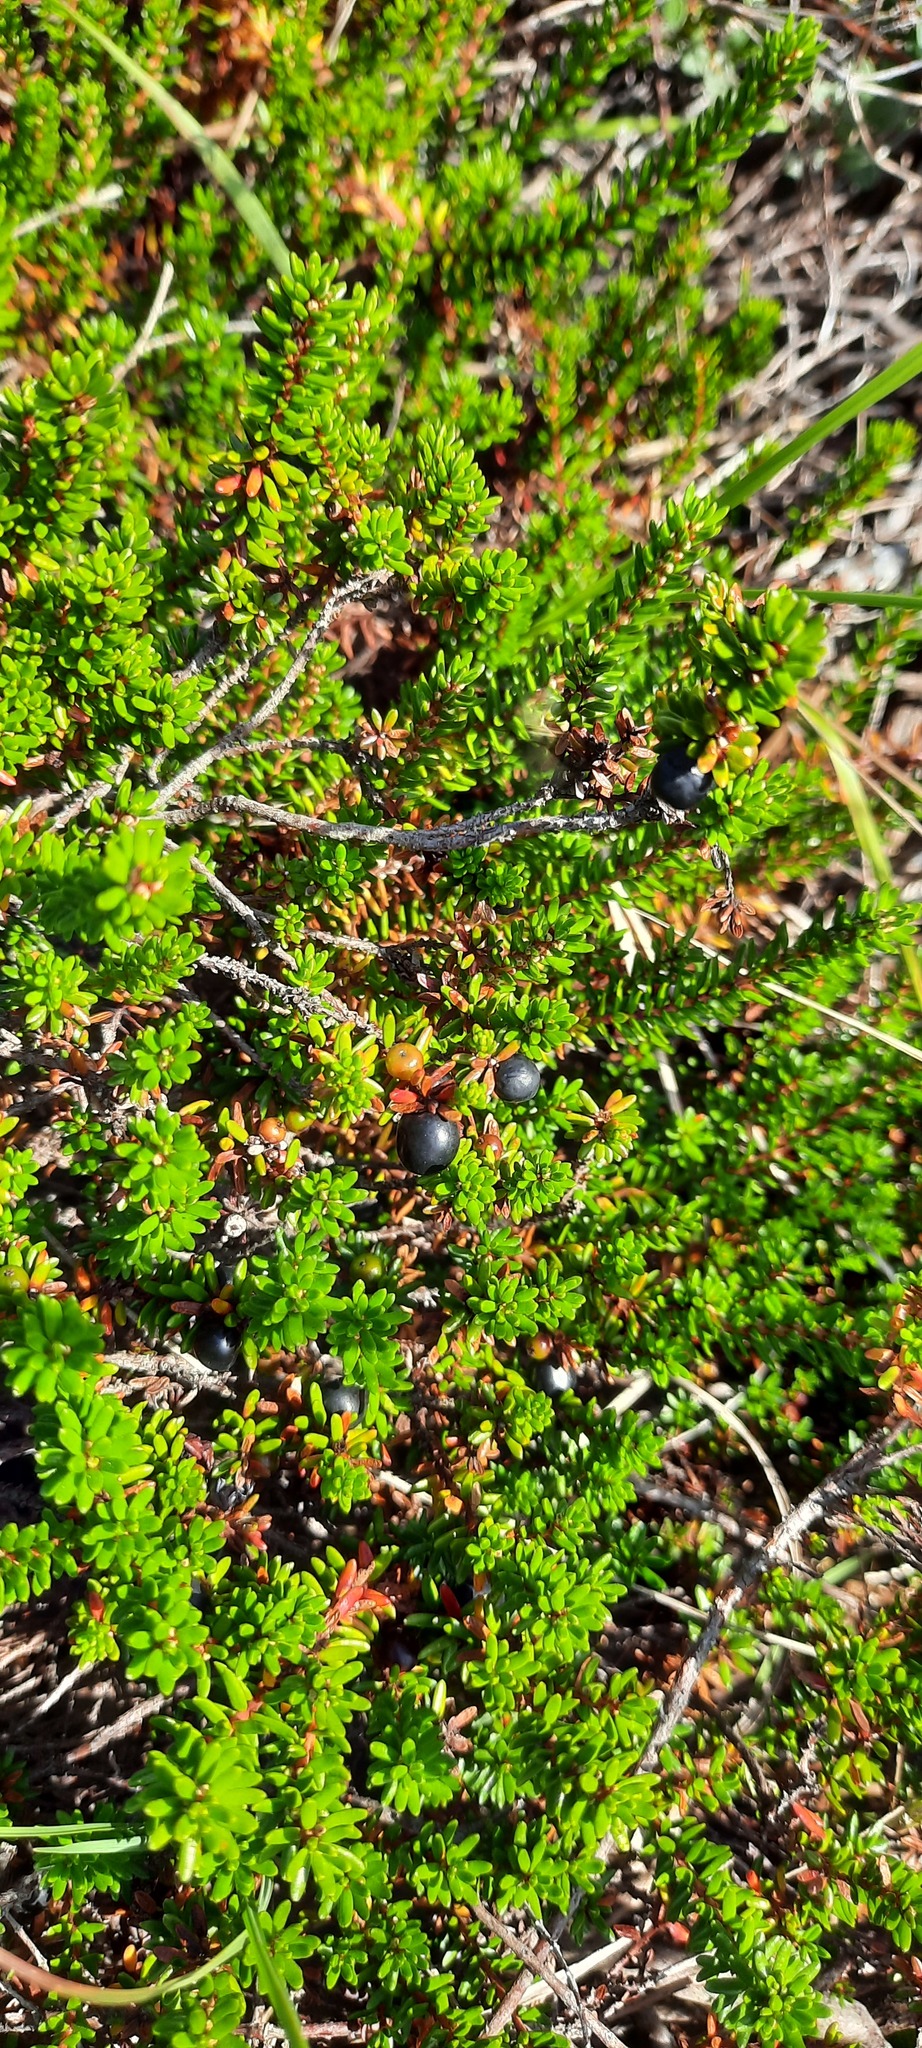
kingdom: Plantae
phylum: Tracheophyta
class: Magnoliopsida
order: Ericales
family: Ericaceae
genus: Empetrum
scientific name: Empetrum nigrum
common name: Black crowberry
